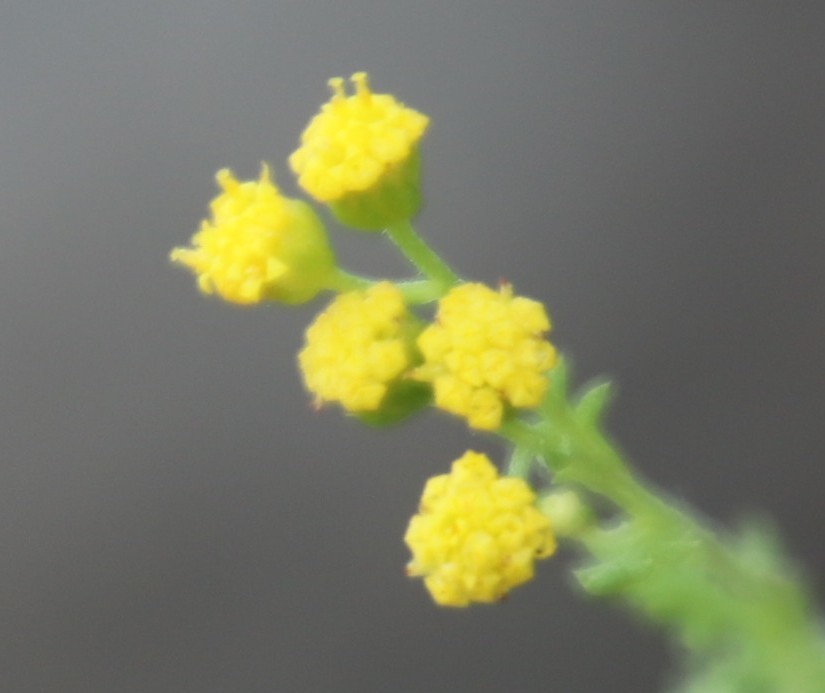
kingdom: Plantae
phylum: Tracheophyta
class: Magnoliopsida
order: Asterales
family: Asteraceae
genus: Hippia
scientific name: Hippia pilosa
